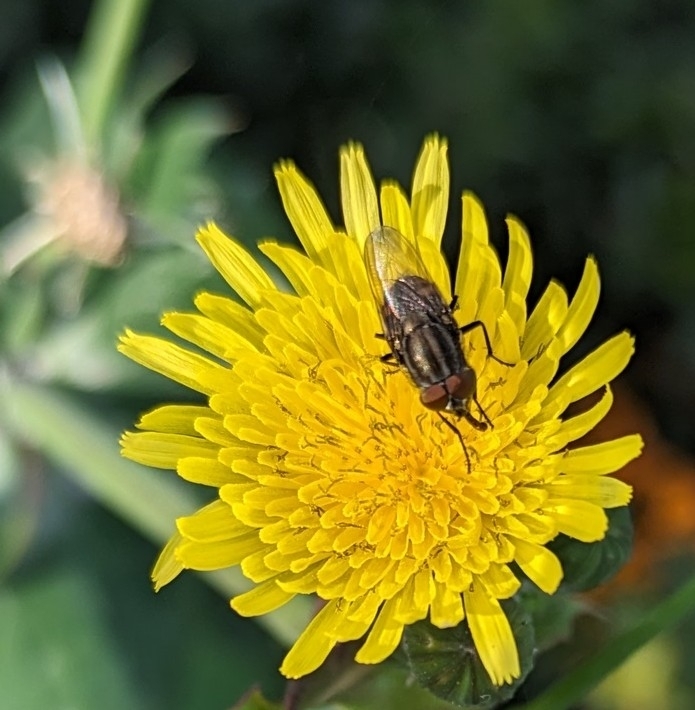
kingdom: Animalia
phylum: Arthropoda
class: Insecta
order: Diptera
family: Calliphoridae
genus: Stomorhina
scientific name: Stomorhina lunata
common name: Locust blowfly
